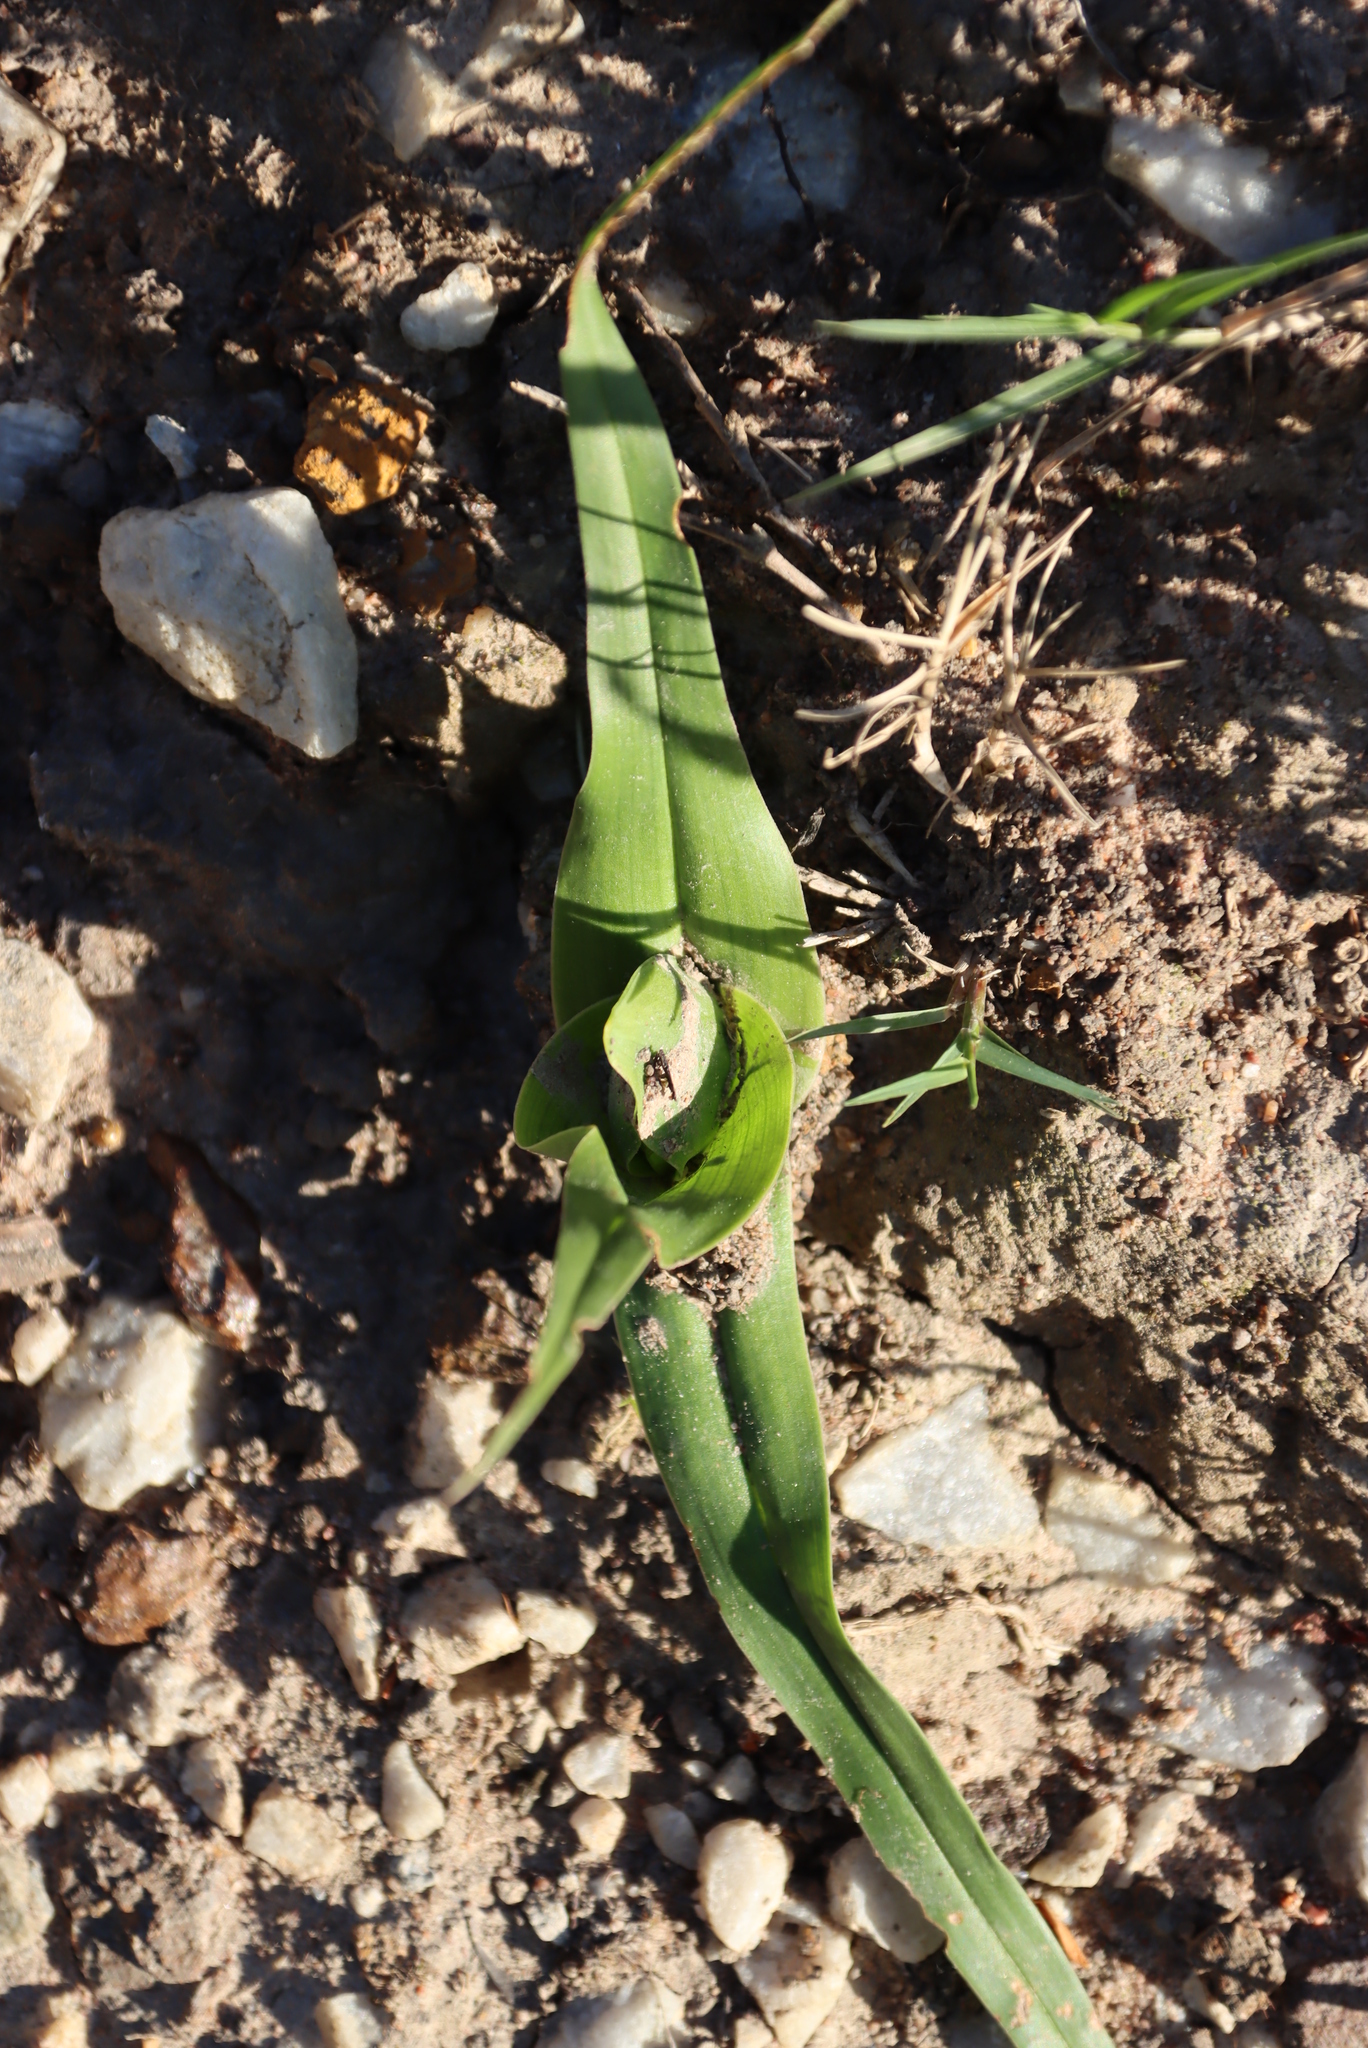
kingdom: Plantae
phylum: Tracheophyta
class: Liliopsida
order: Liliales
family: Colchicaceae
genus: Colchicum
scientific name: Colchicum eucomoides
